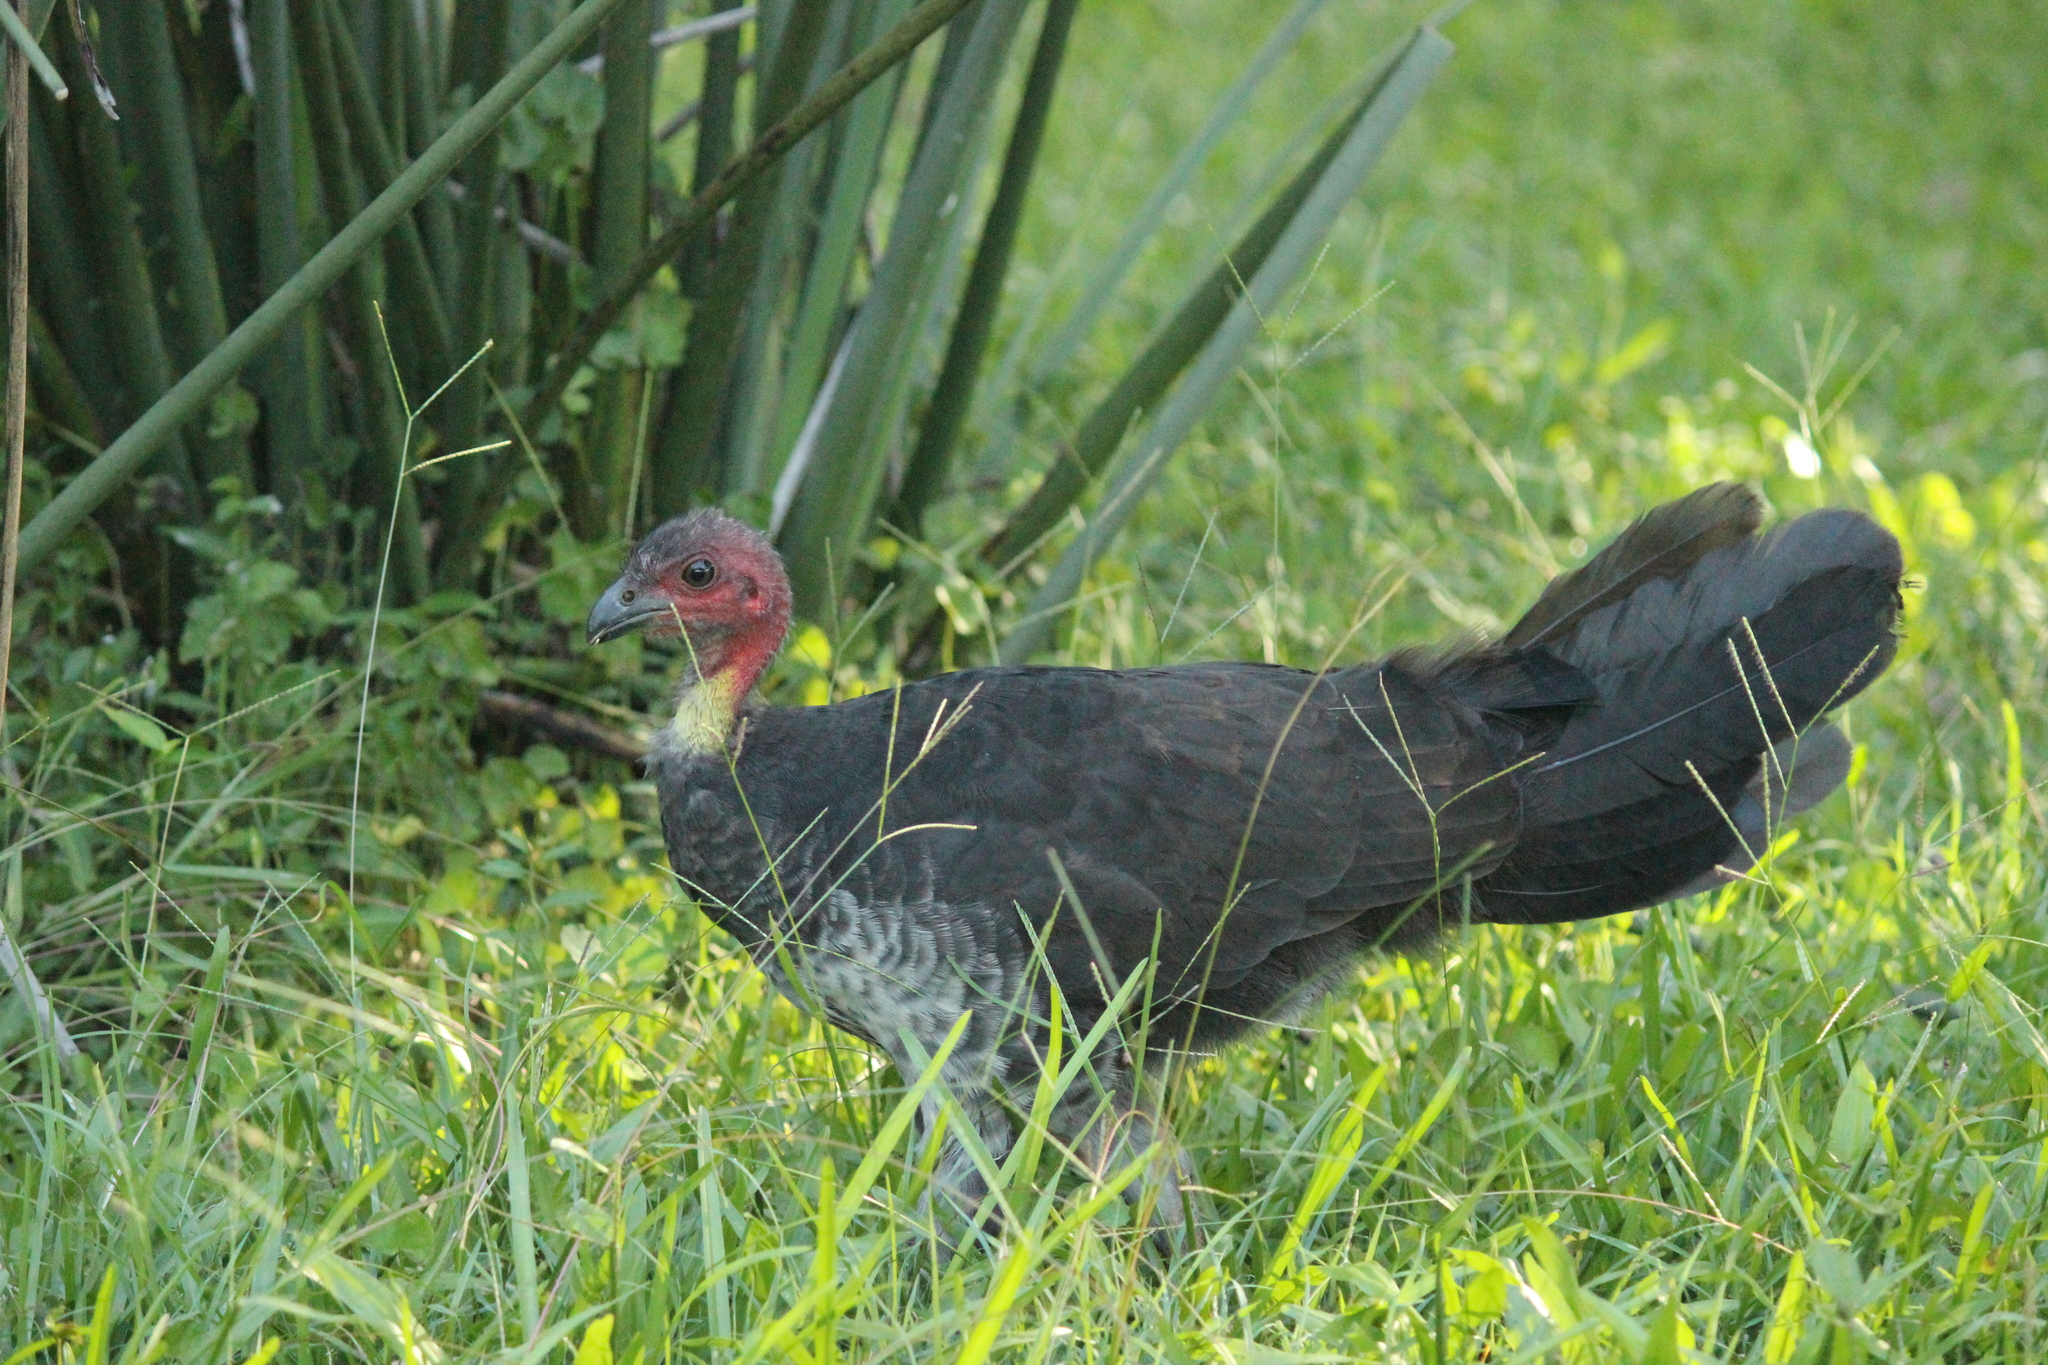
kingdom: Animalia
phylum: Chordata
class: Aves
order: Galliformes
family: Megapodiidae
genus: Alectura
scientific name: Alectura lathami
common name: Australian brushturkey
